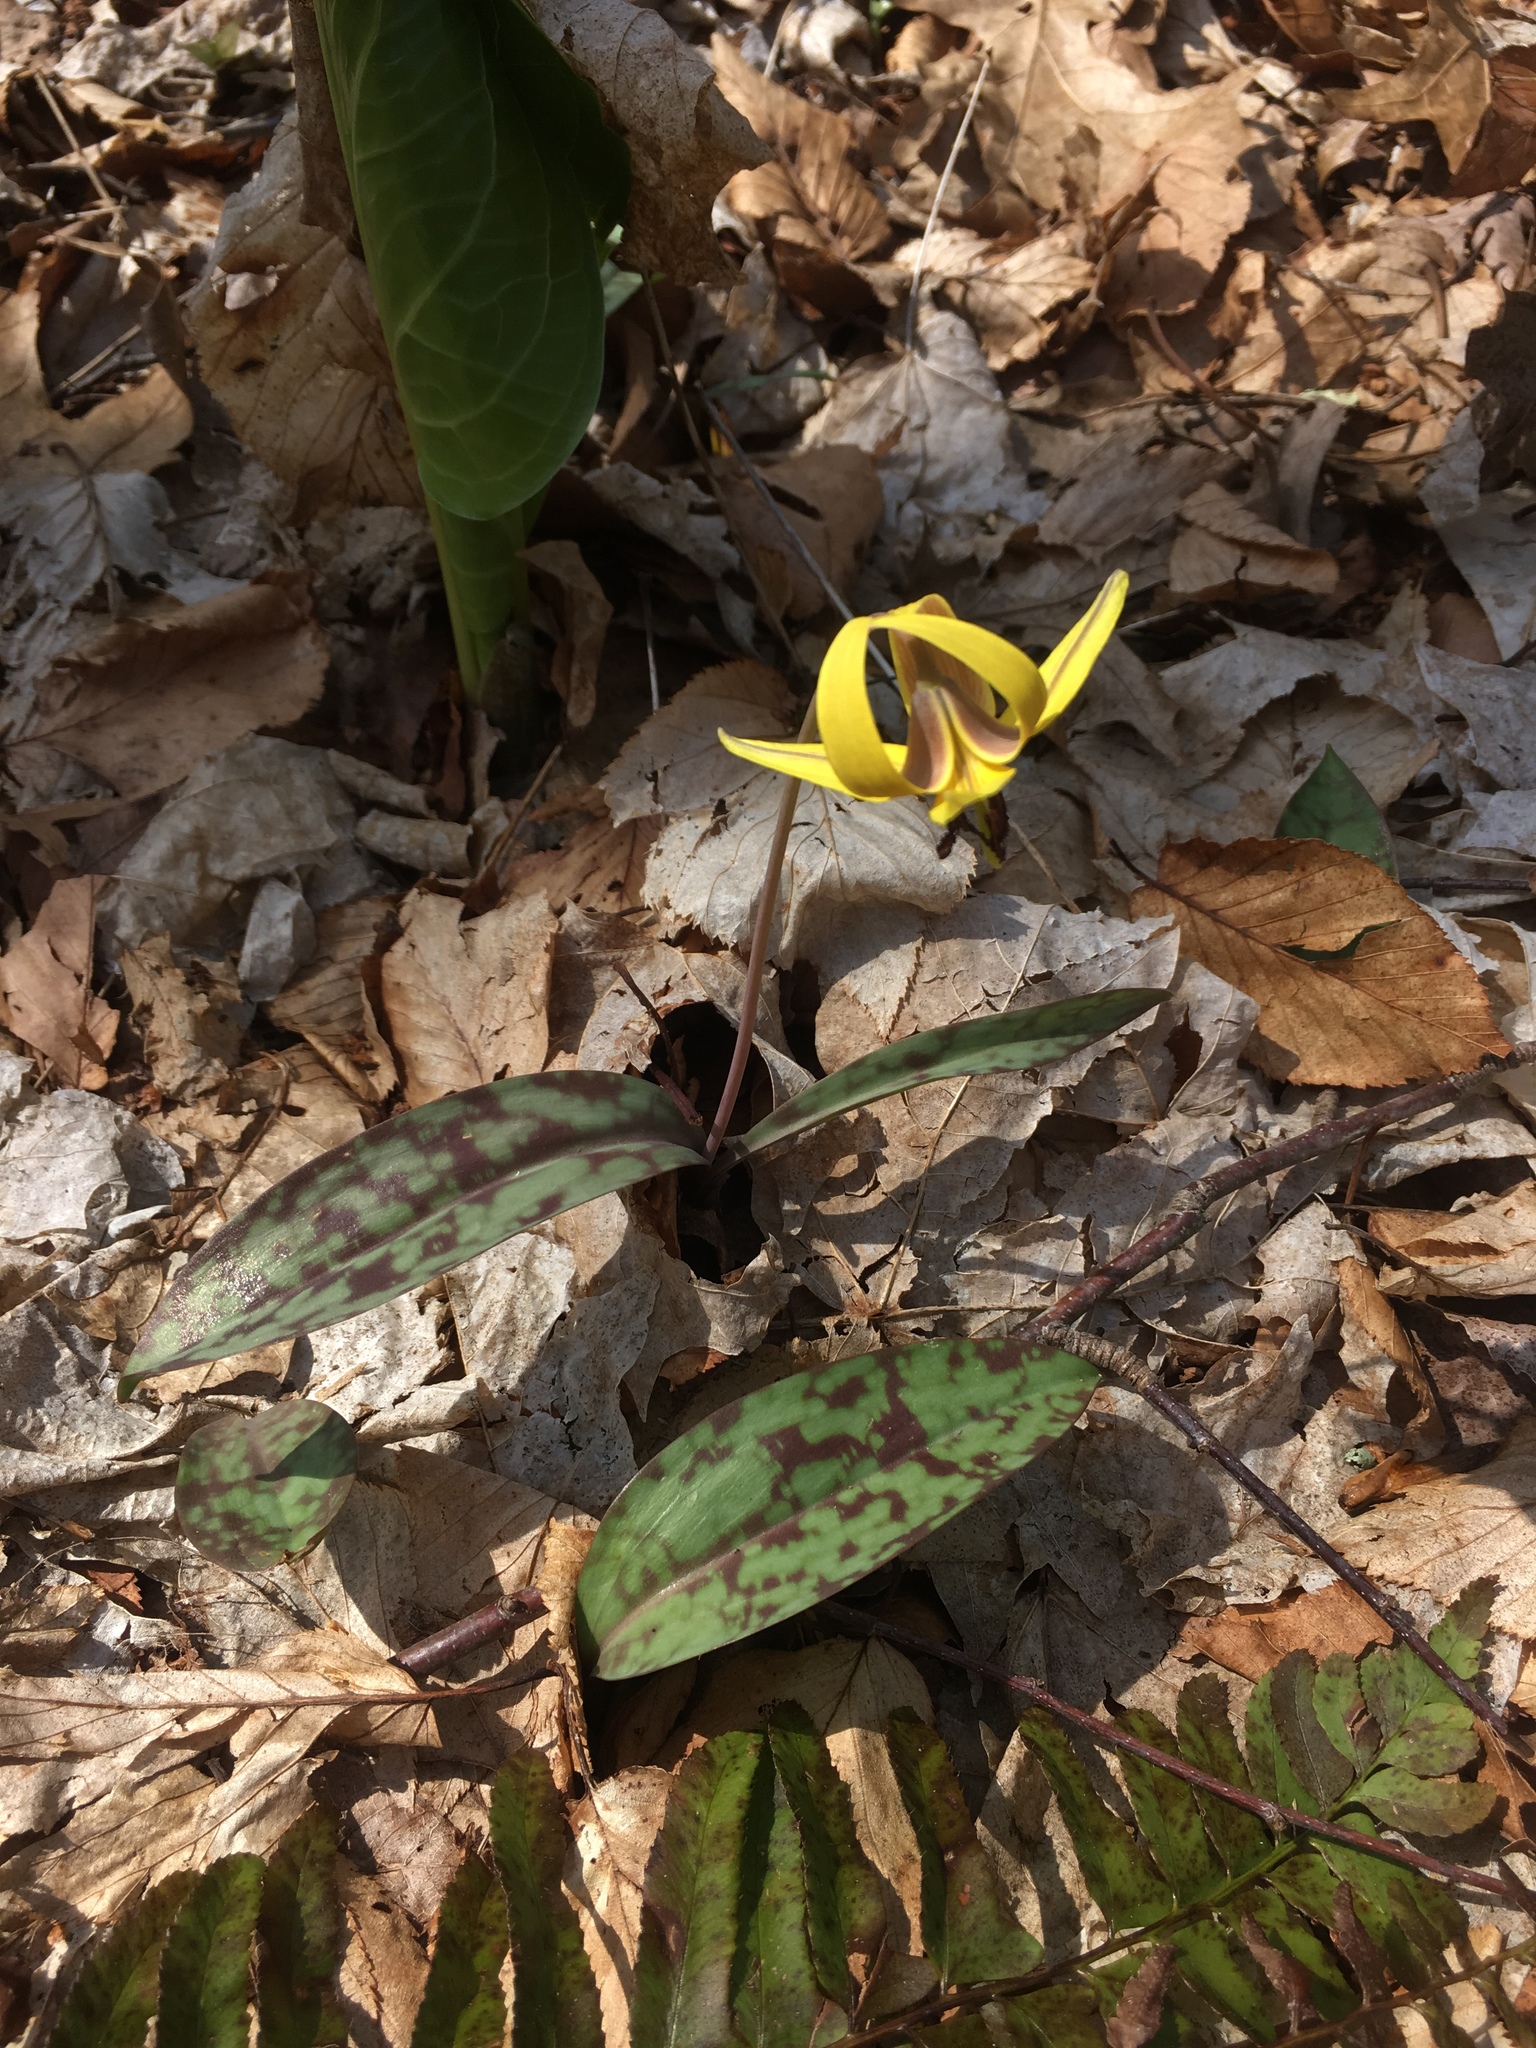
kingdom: Plantae
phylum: Tracheophyta
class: Liliopsida
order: Liliales
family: Liliaceae
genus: Erythronium
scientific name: Erythronium americanum
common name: Yellow adder's-tongue
